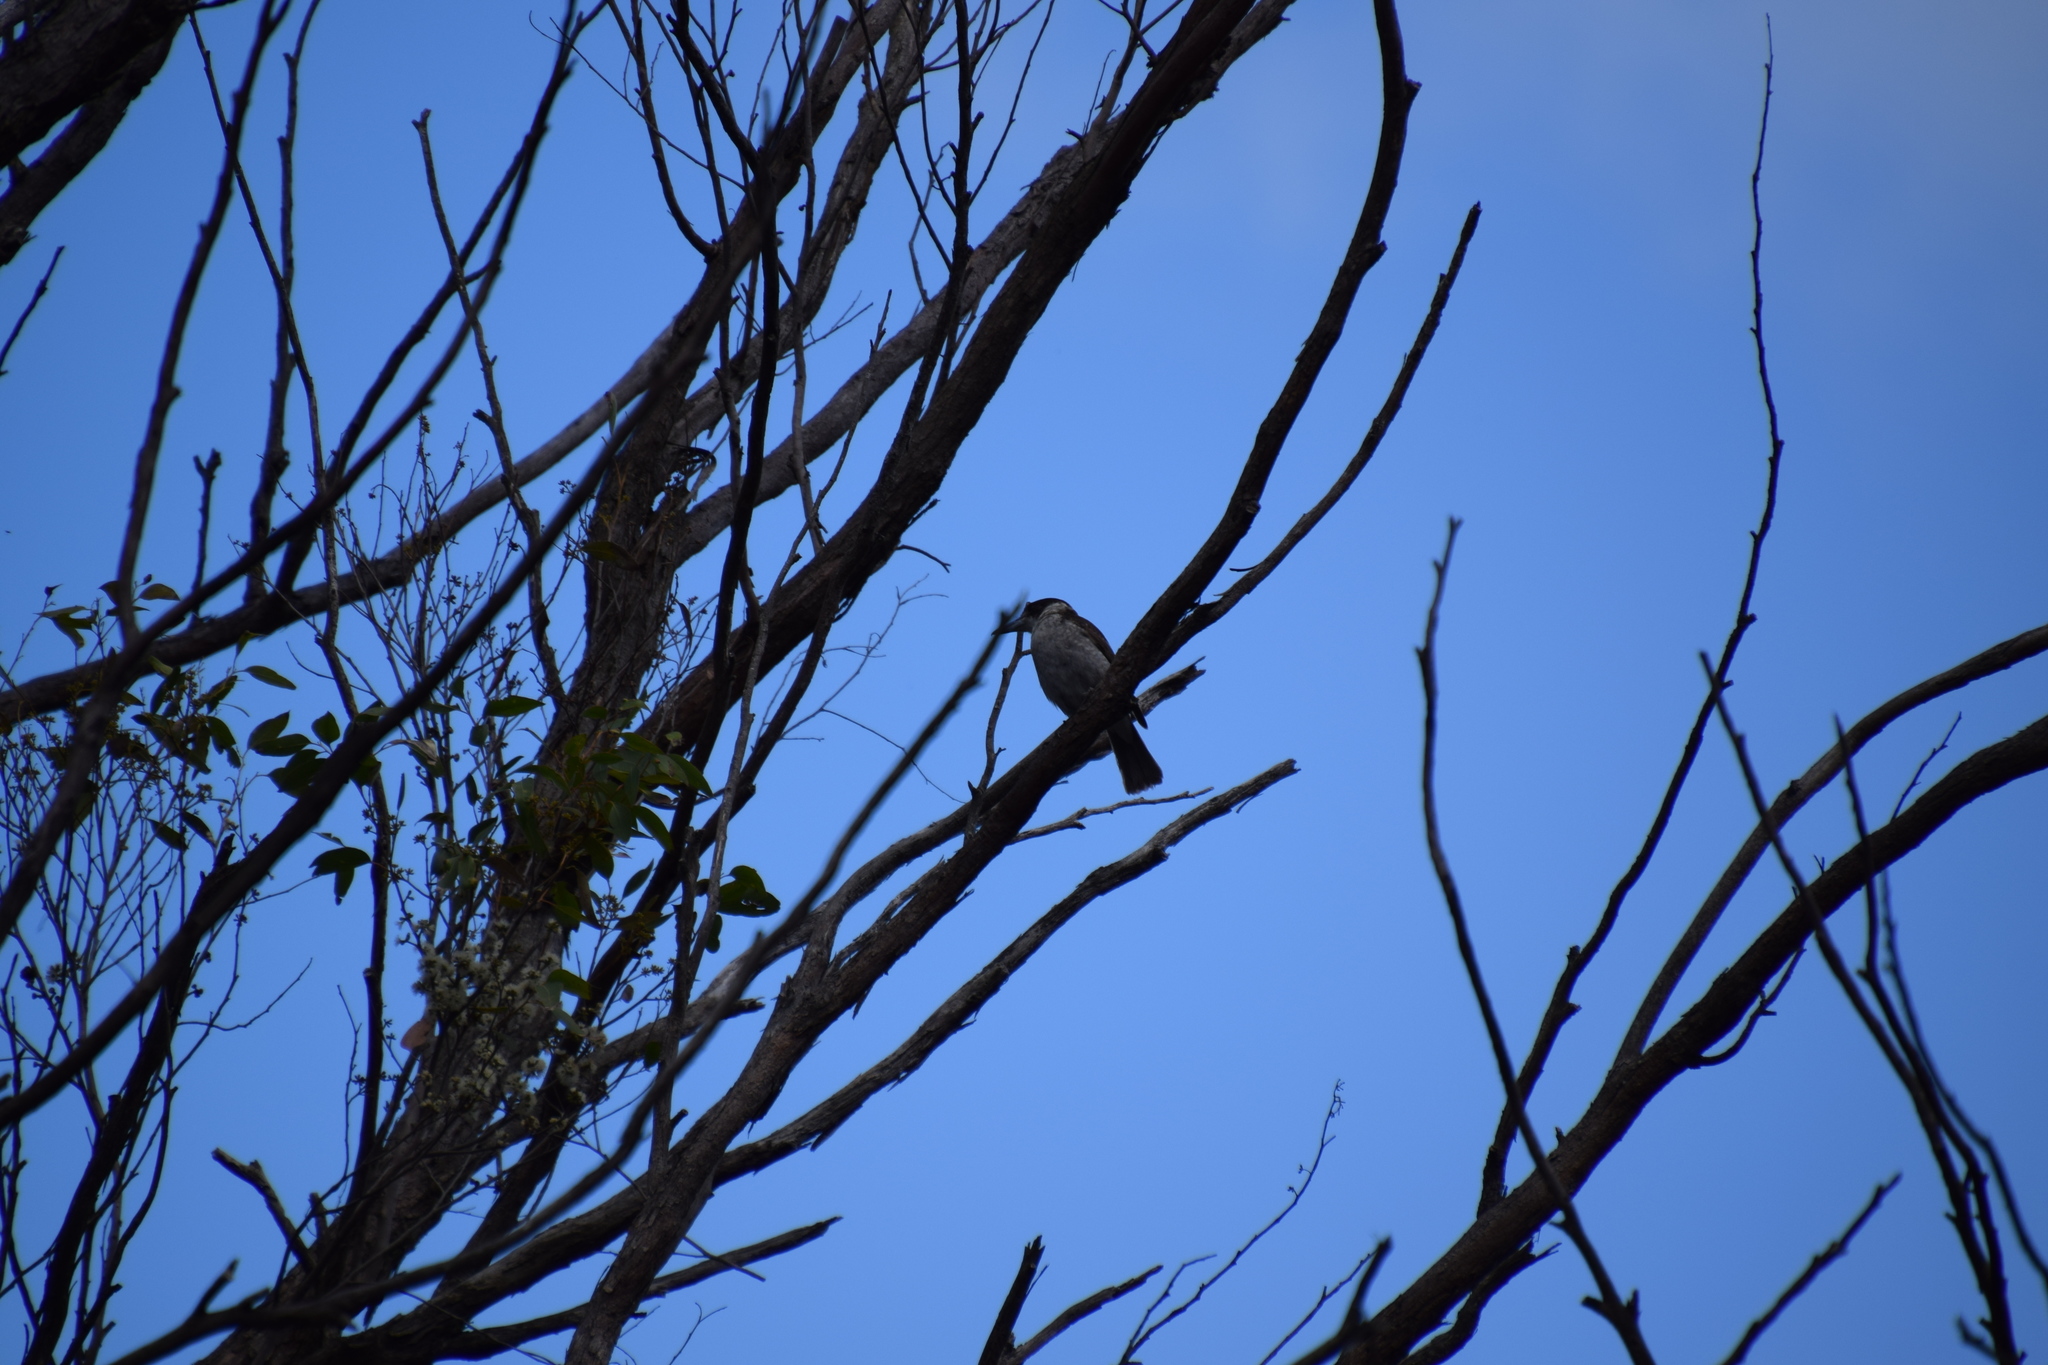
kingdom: Animalia
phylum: Chordata
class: Aves
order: Passeriformes
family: Cracticidae
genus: Cracticus
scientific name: Cracticus torquatus
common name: Grey butcherbird
